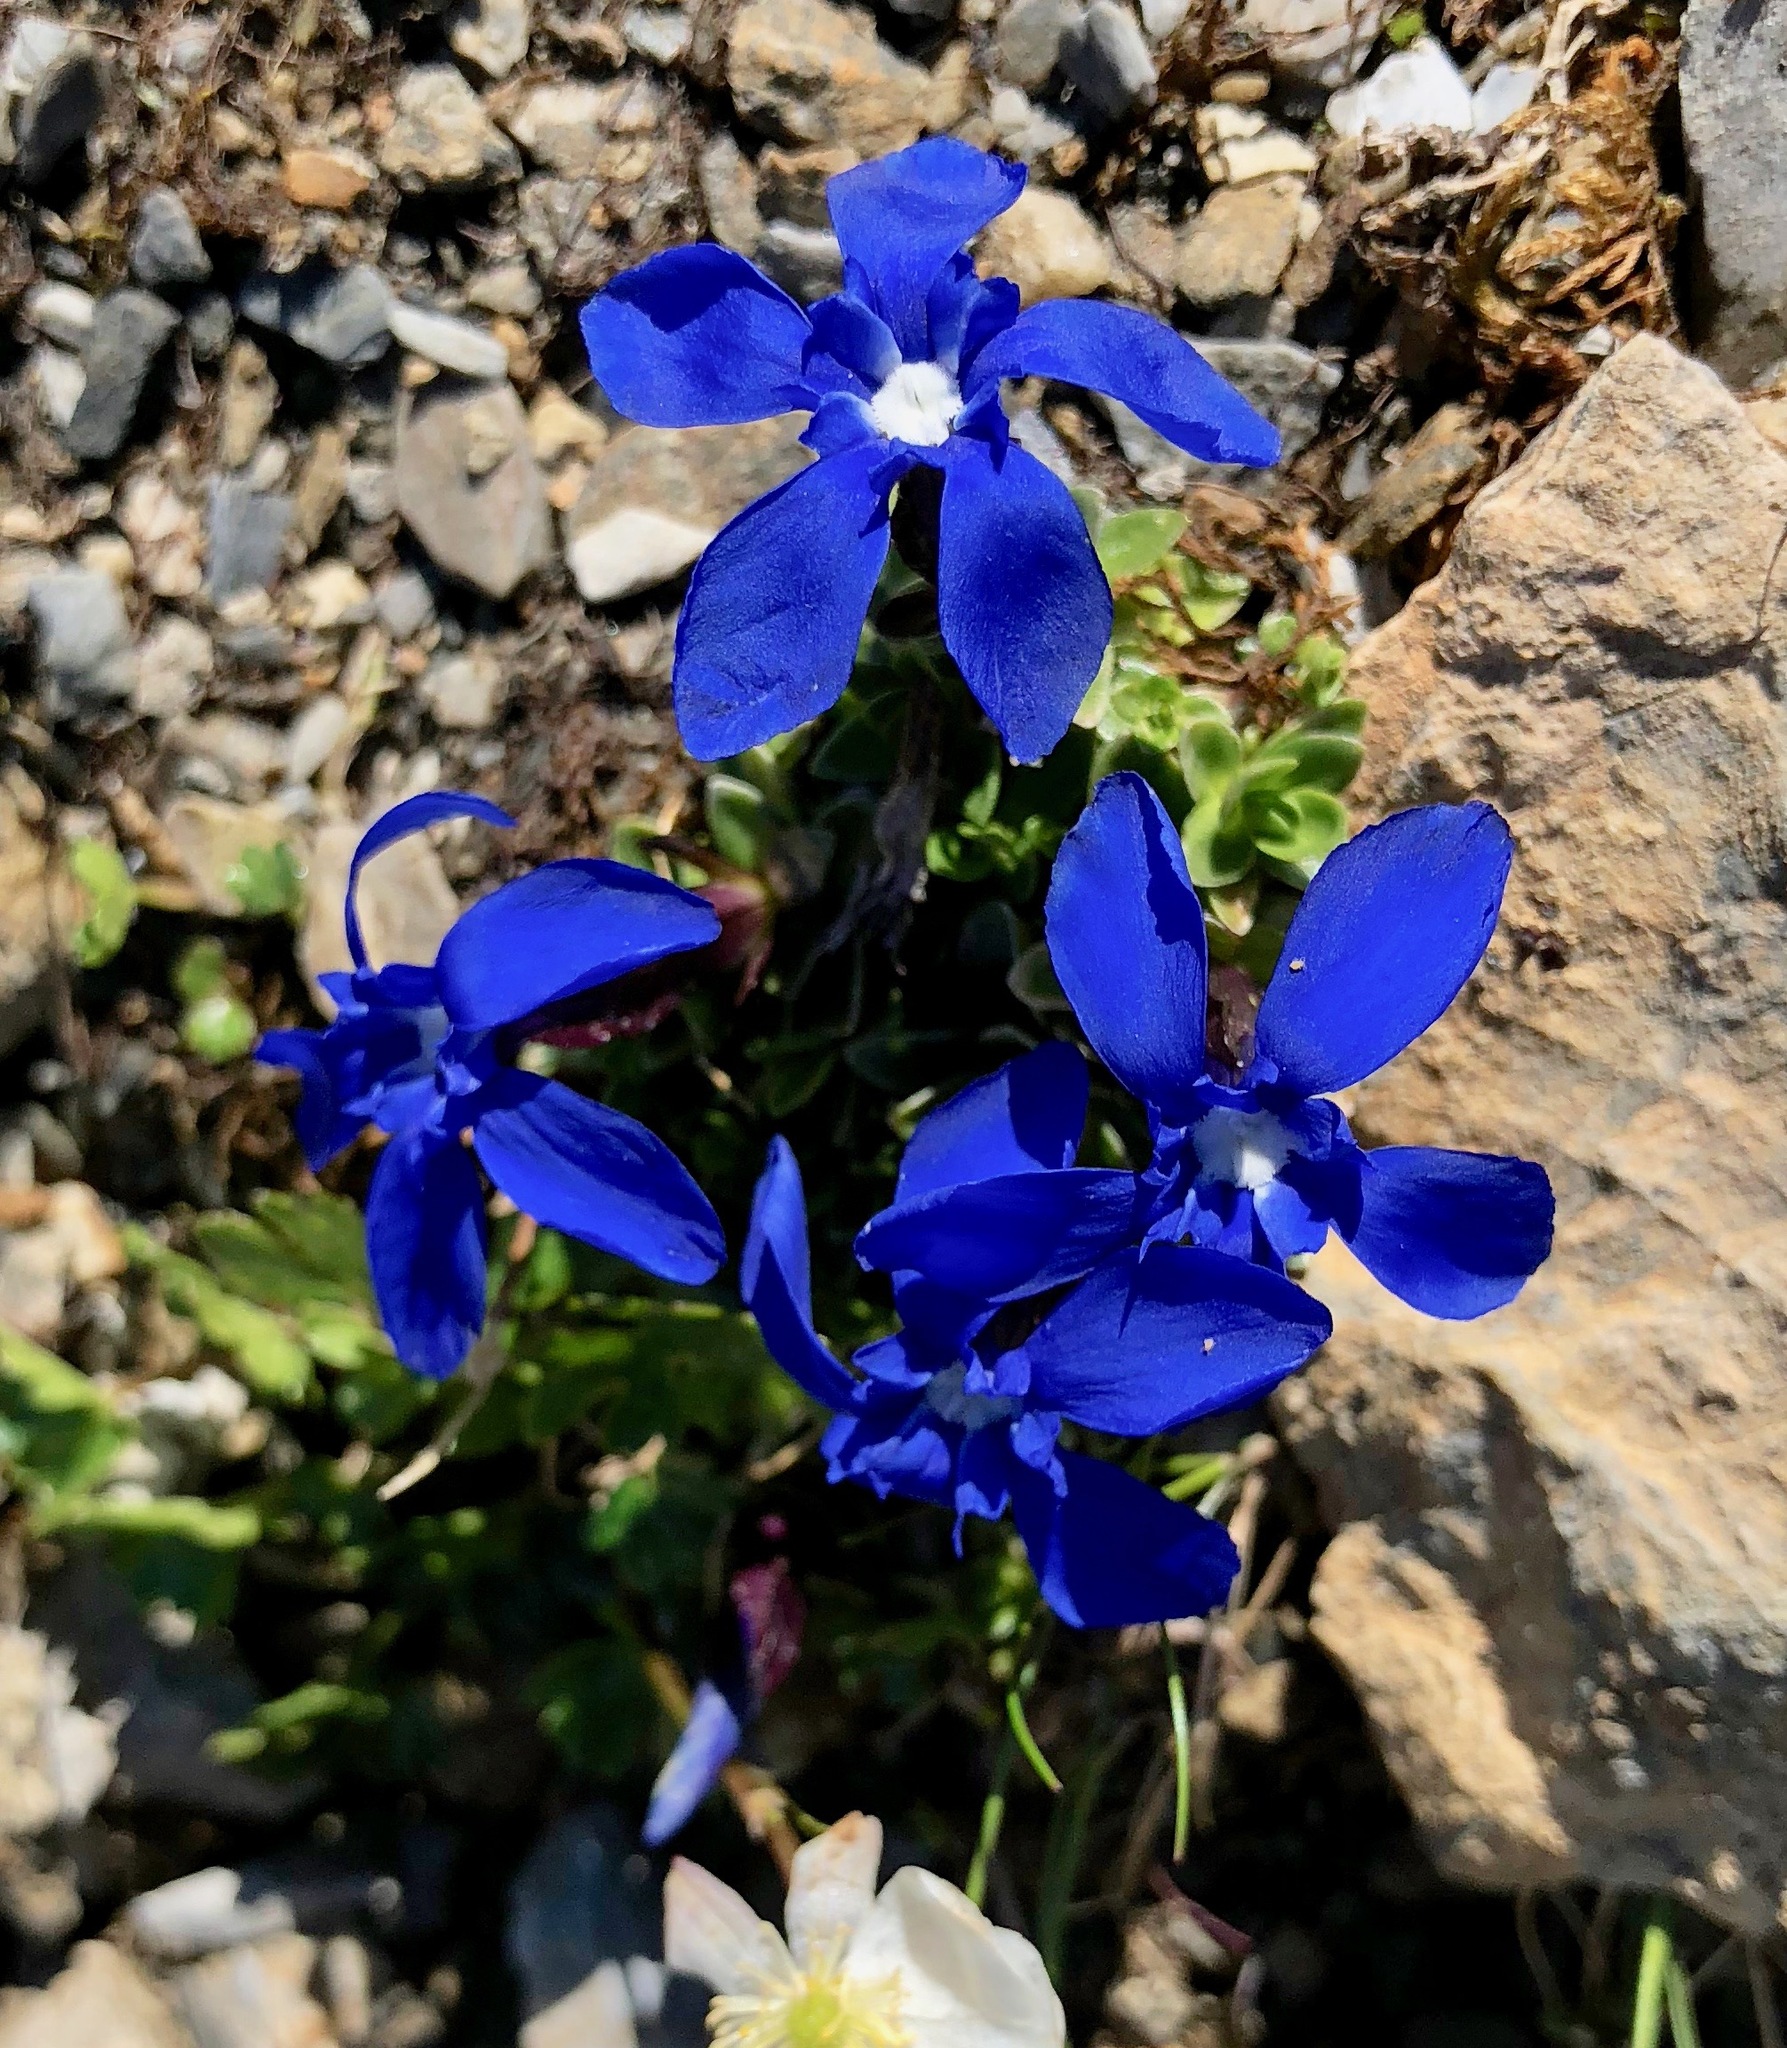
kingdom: Plantae
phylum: Tracheophyta
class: Magnoliopsida
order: Gentianales
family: Gentianaceae
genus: Gentiana
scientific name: Gentiana orbicularis
